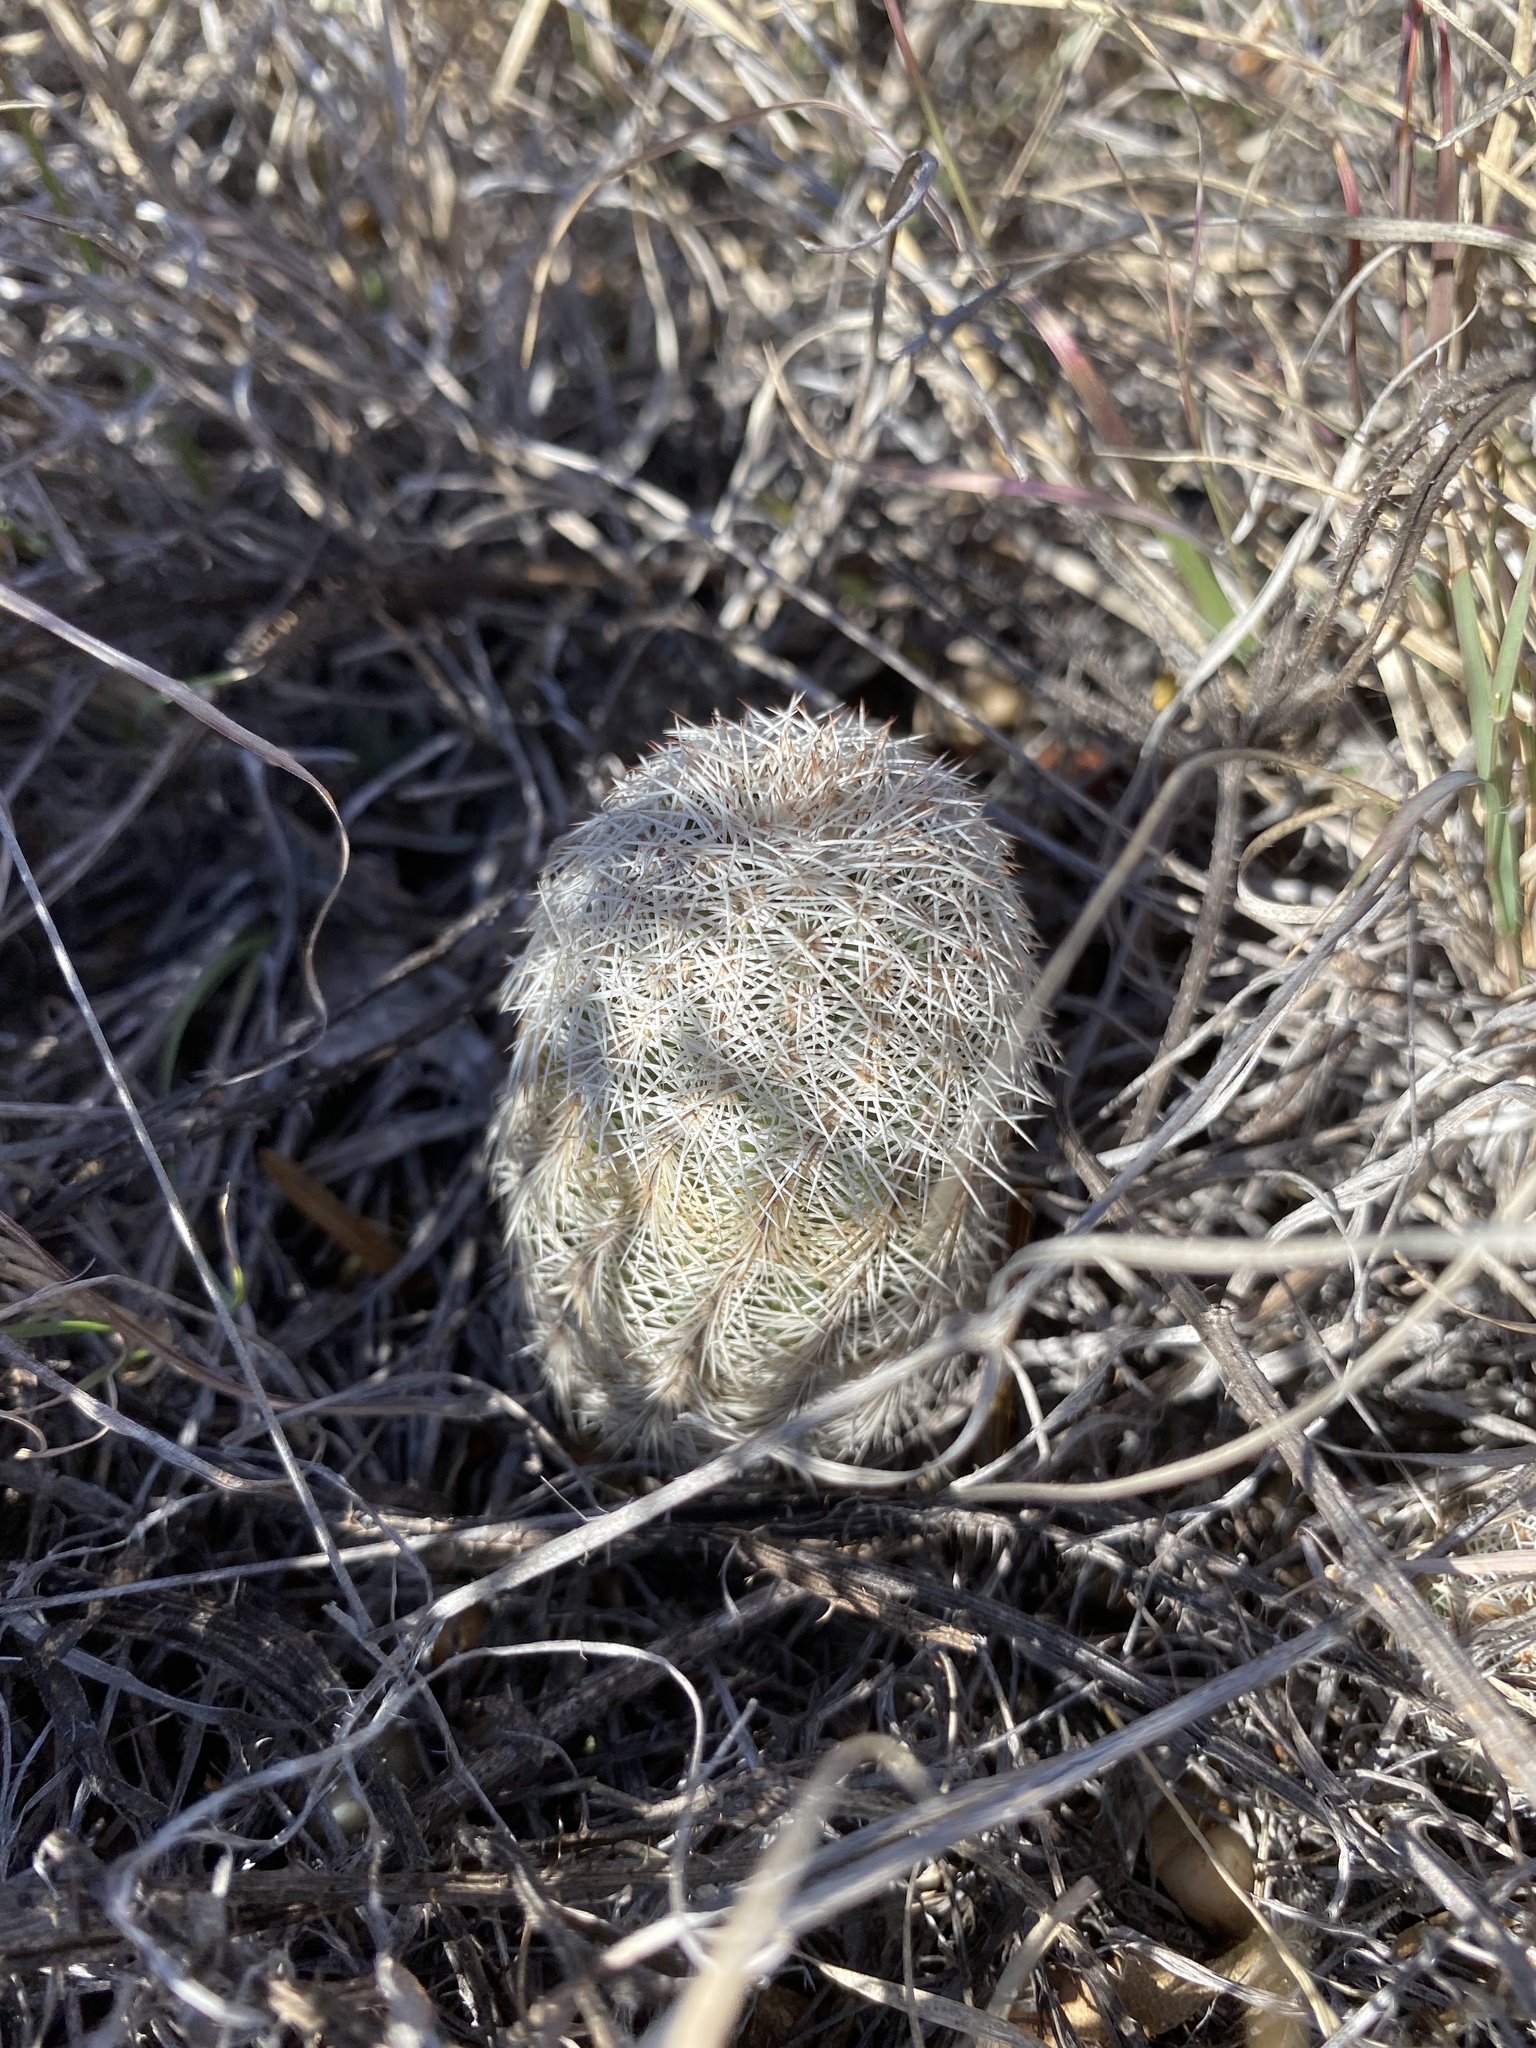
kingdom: Plantae
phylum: Tracheophyta
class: Magnoliopsida
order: Caryophyllales
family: Cactaceae
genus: Echinocereus
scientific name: Echinocereus reichenbachii
